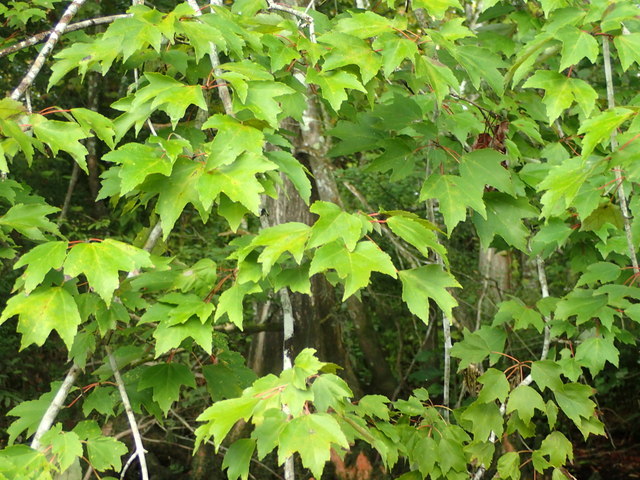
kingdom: Plantae
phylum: Tracheophyta
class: Magnoliopsida
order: Sapindales
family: Sapindaceae
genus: Acer
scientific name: Acer rubrum
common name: Red maple
